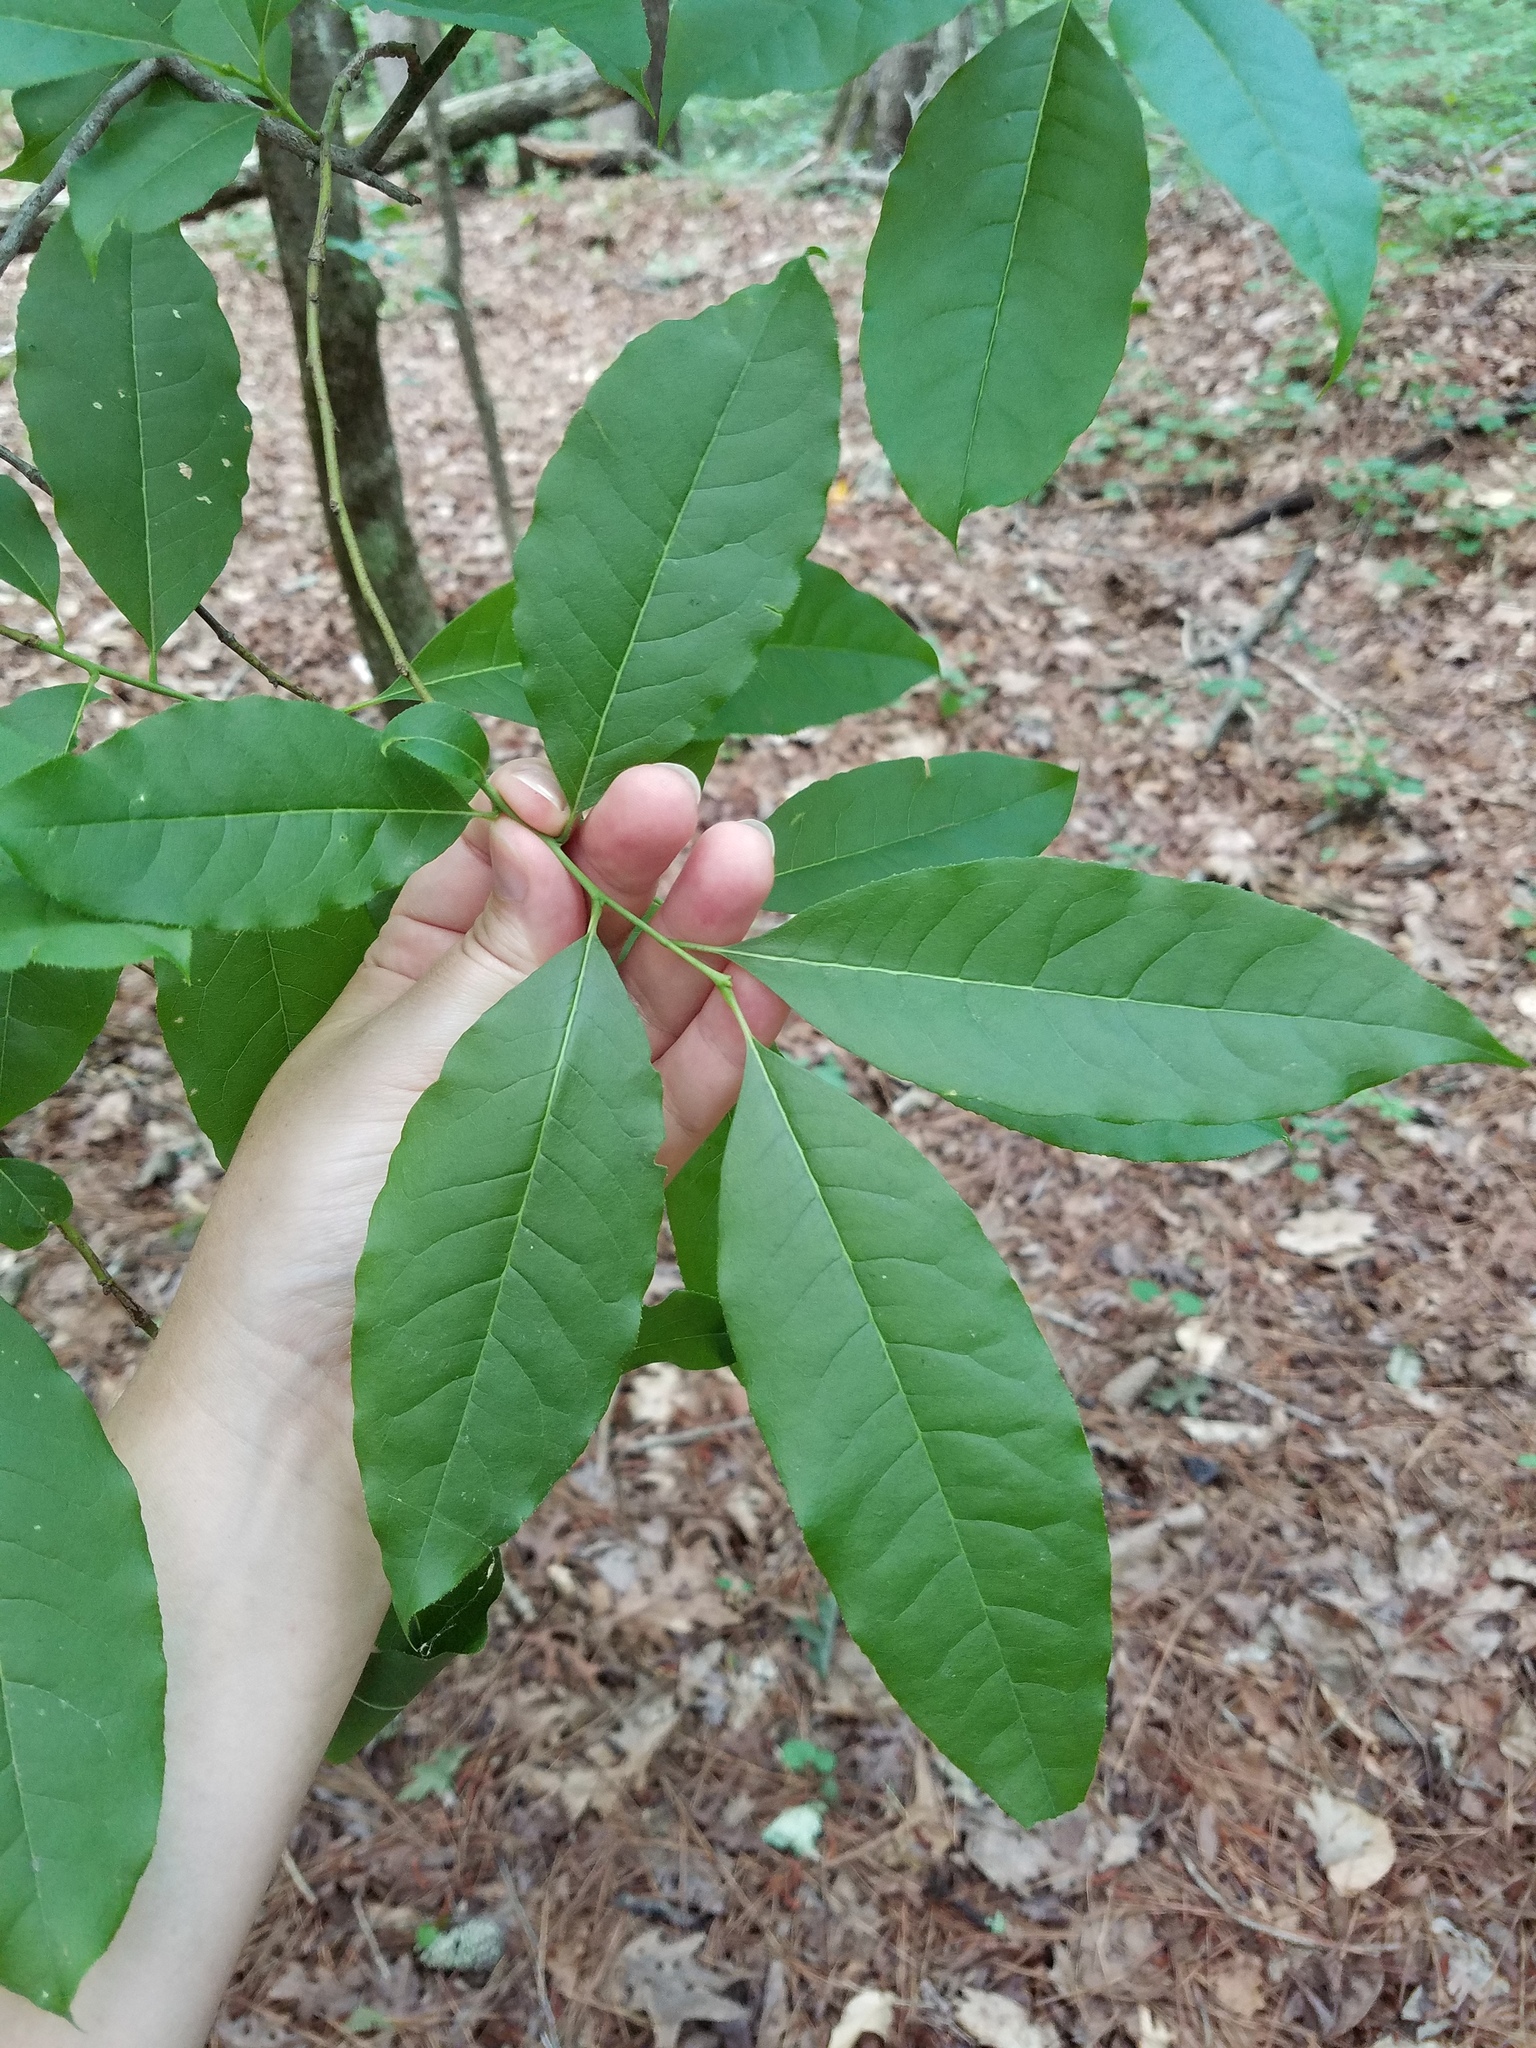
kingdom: Plantae
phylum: Tracheophyta
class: Magnoliopsida
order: Ericales
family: Ericaceae
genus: Oxydendrum
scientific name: Oxydendrum arboreum
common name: Sourwood
